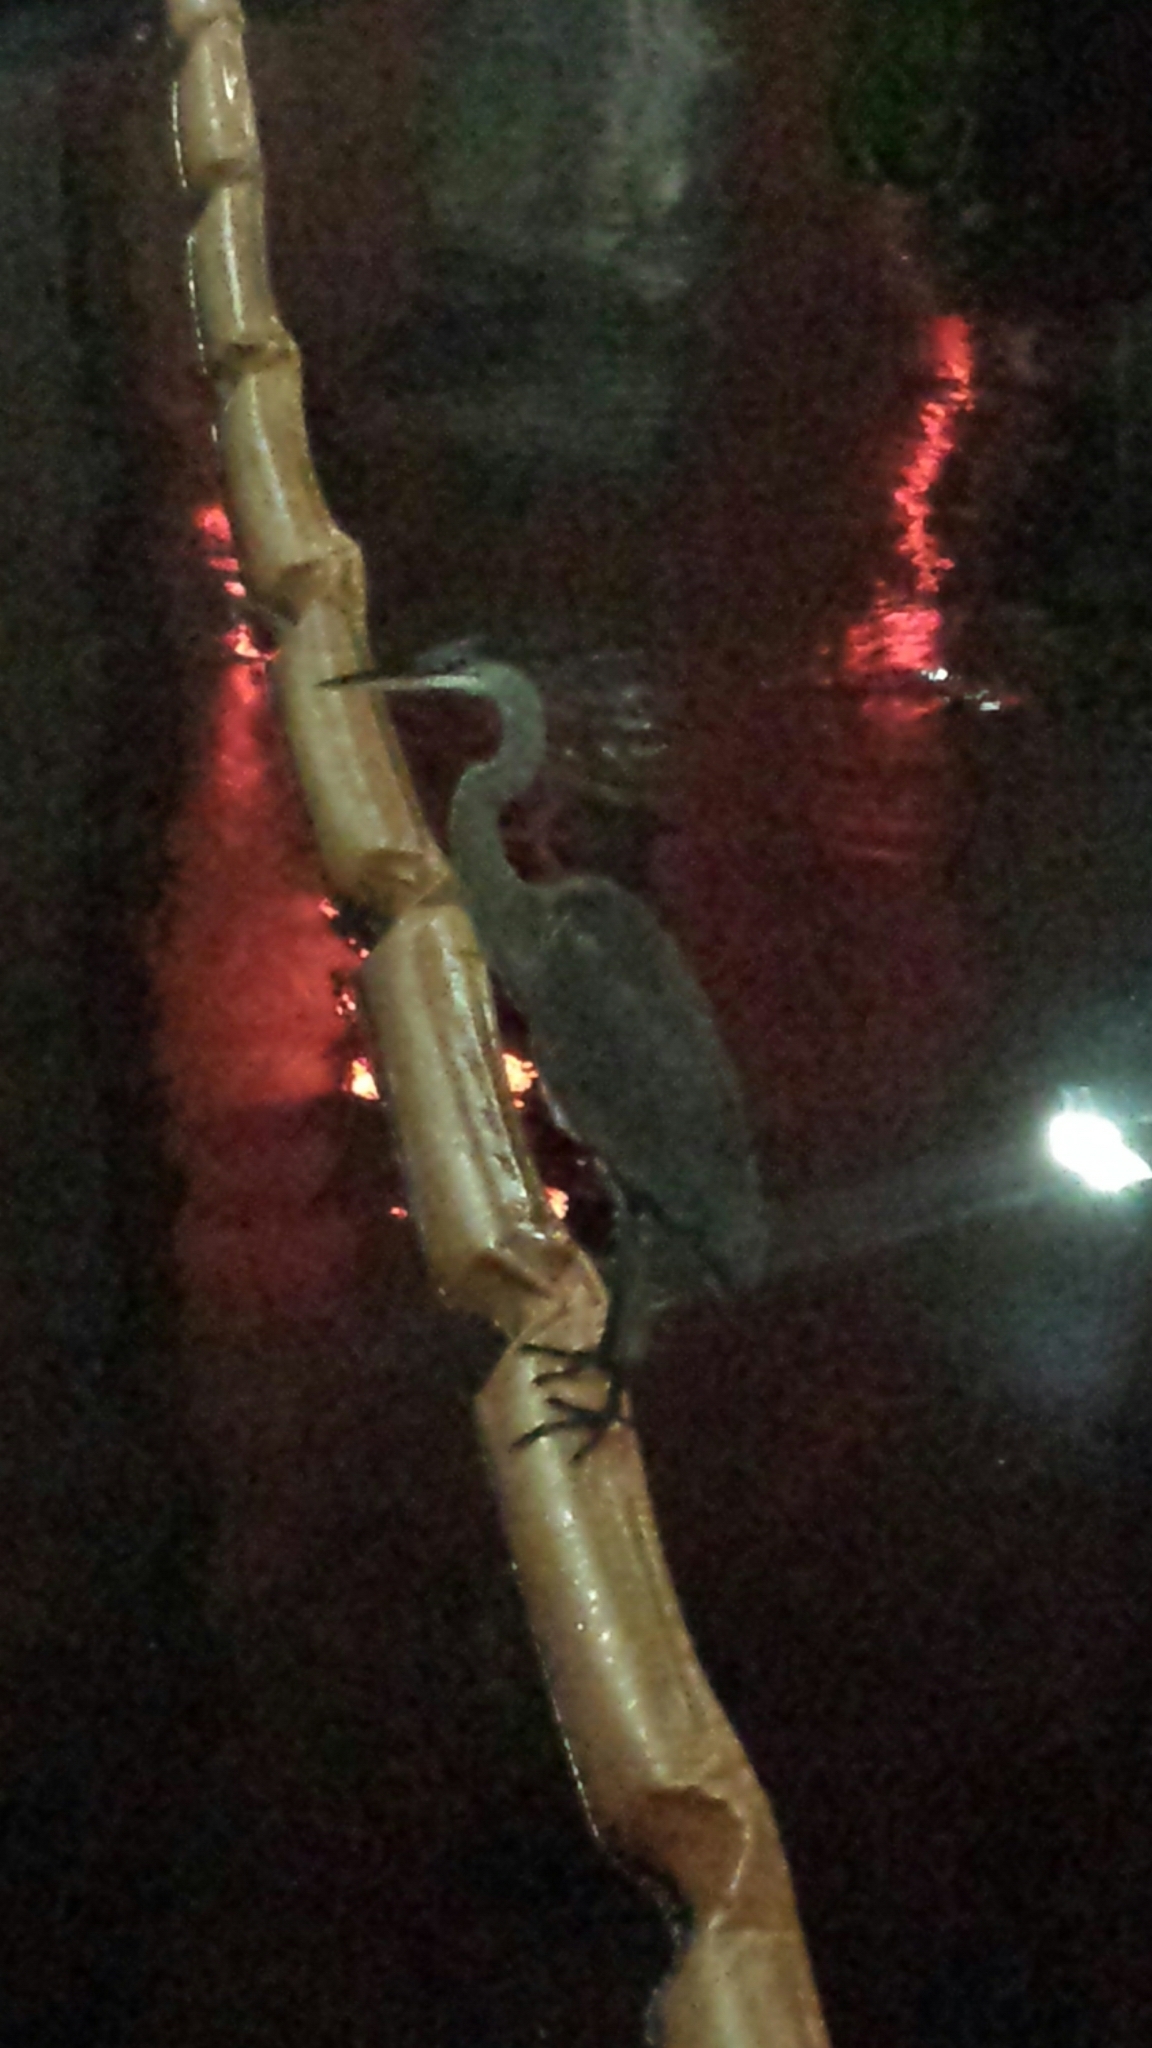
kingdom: Animalia
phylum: Chordata
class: Aves
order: Pelecaniformes
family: Ardeidae
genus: Ardea
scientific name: Ardea herodias
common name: Great blue heron
